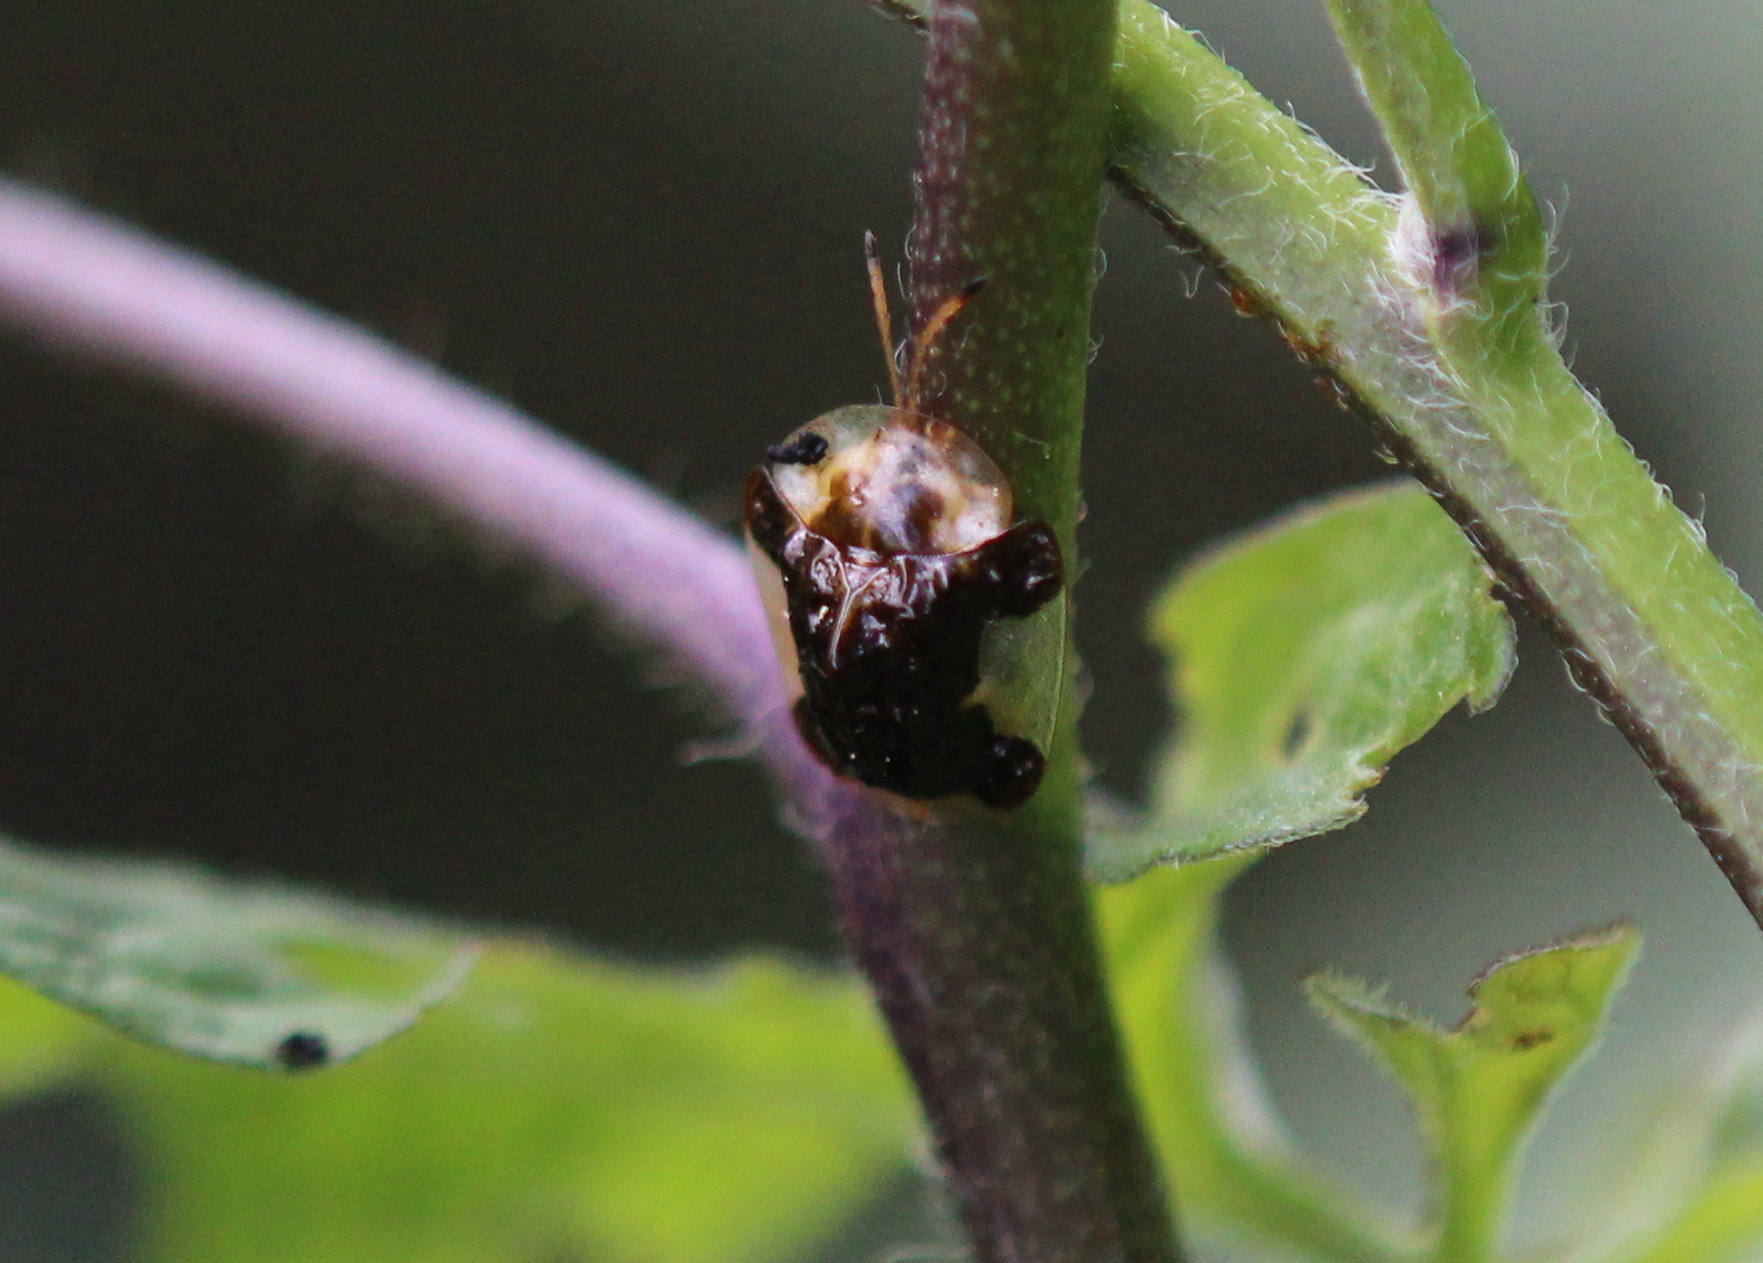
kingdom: Animalia
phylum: Arthropoda
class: Insecta
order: Coleoptera
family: Chrysomelidae
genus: Helocassis
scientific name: Helocassis clavata
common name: Clavate tortoise beetle
